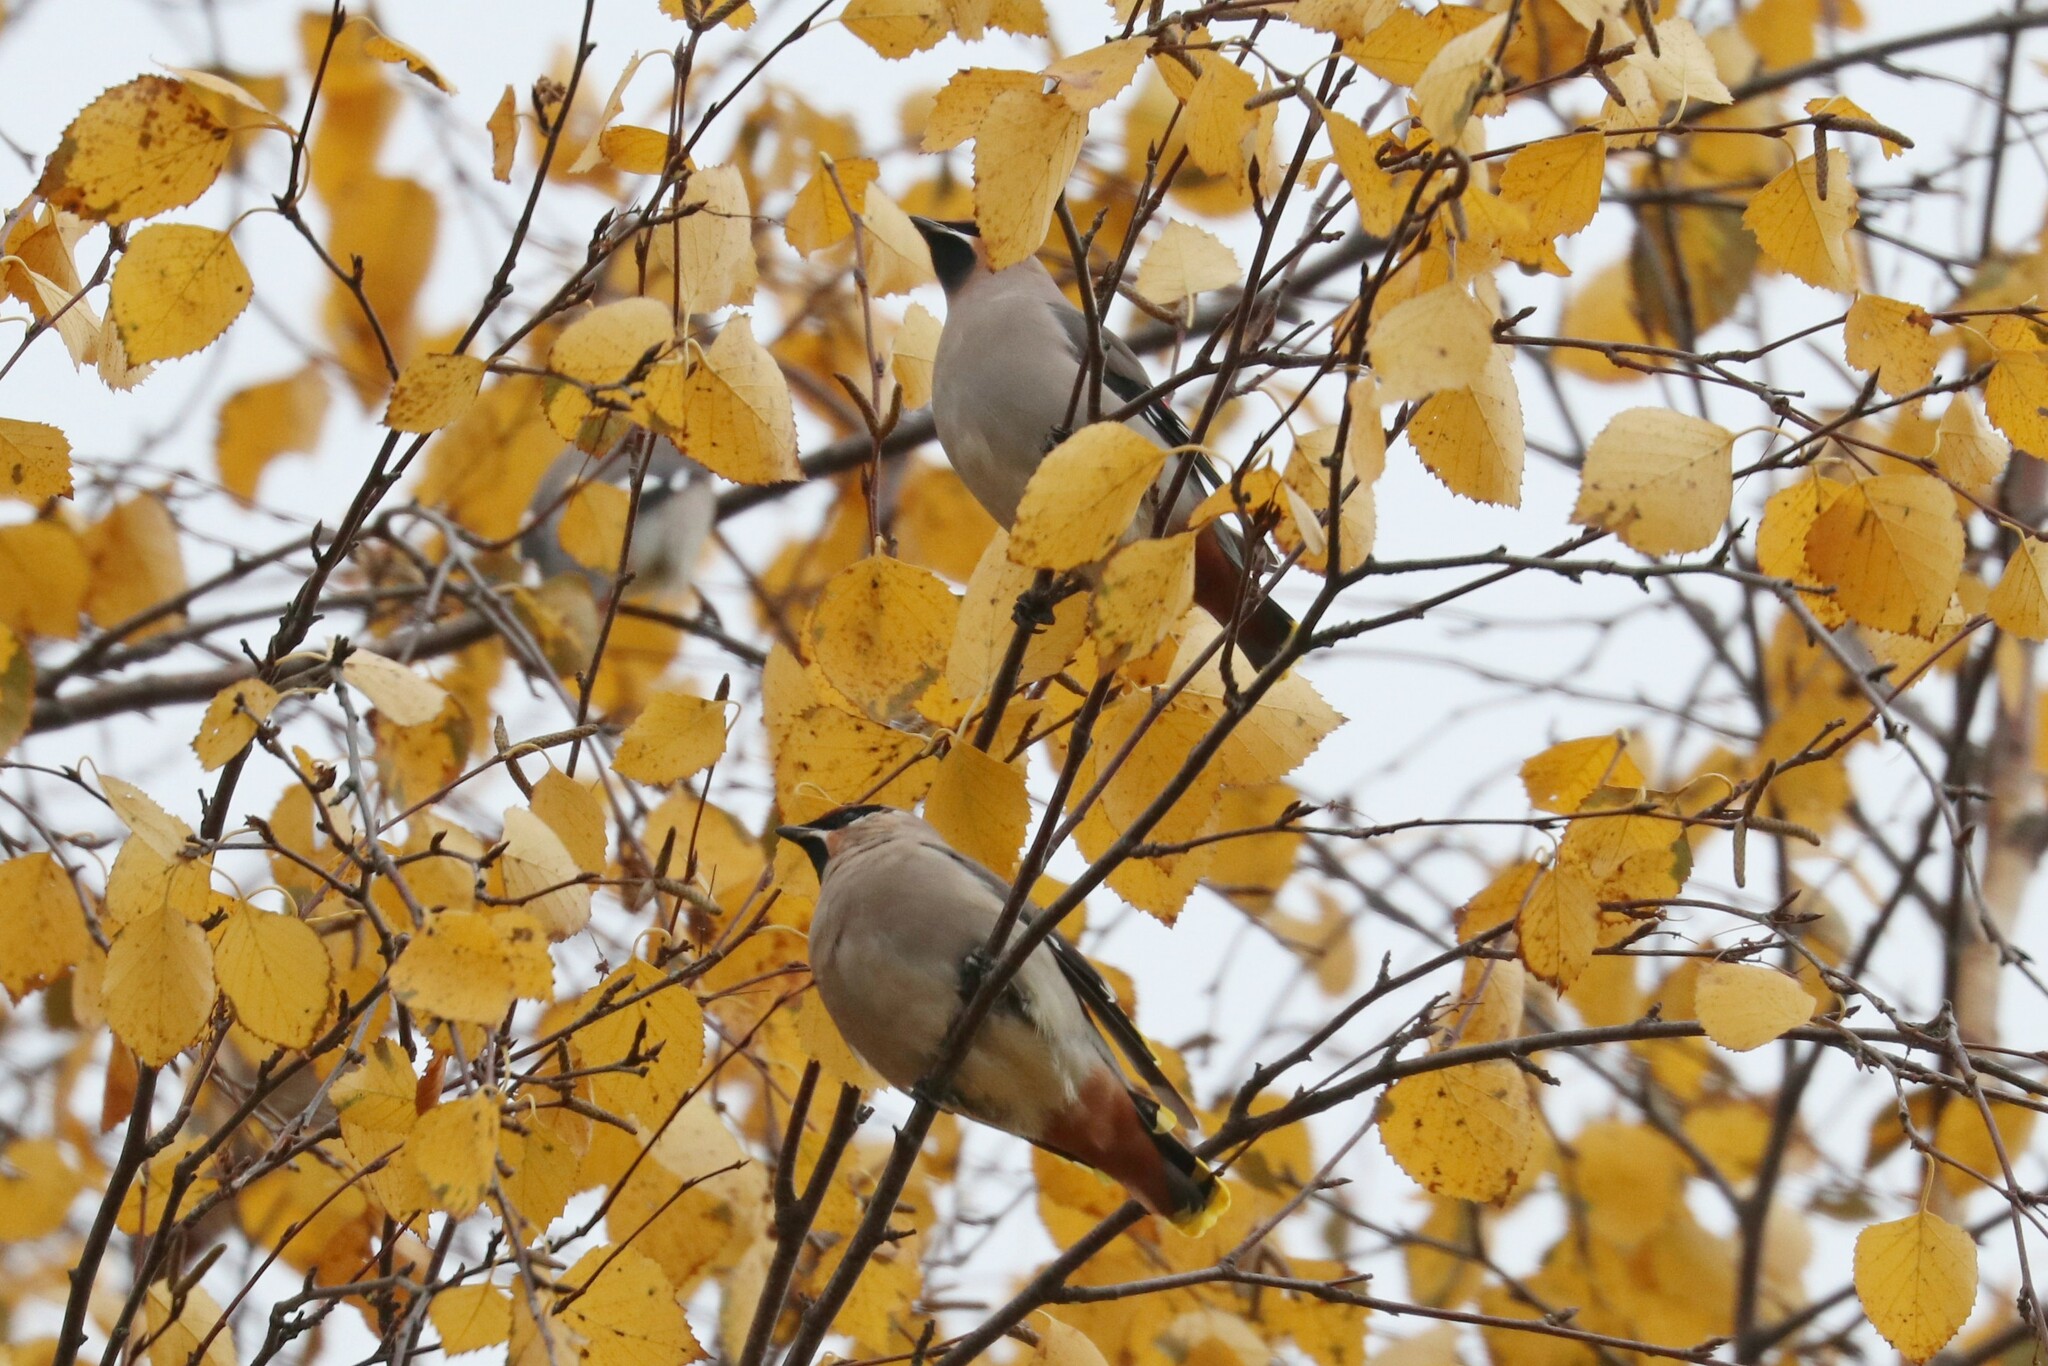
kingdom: Animalia
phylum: Chordata
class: Aves
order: Passeriformes
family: Bombycillidae
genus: Bombycilla
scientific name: Bombycilla garrulus
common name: Bohemian waxwing
